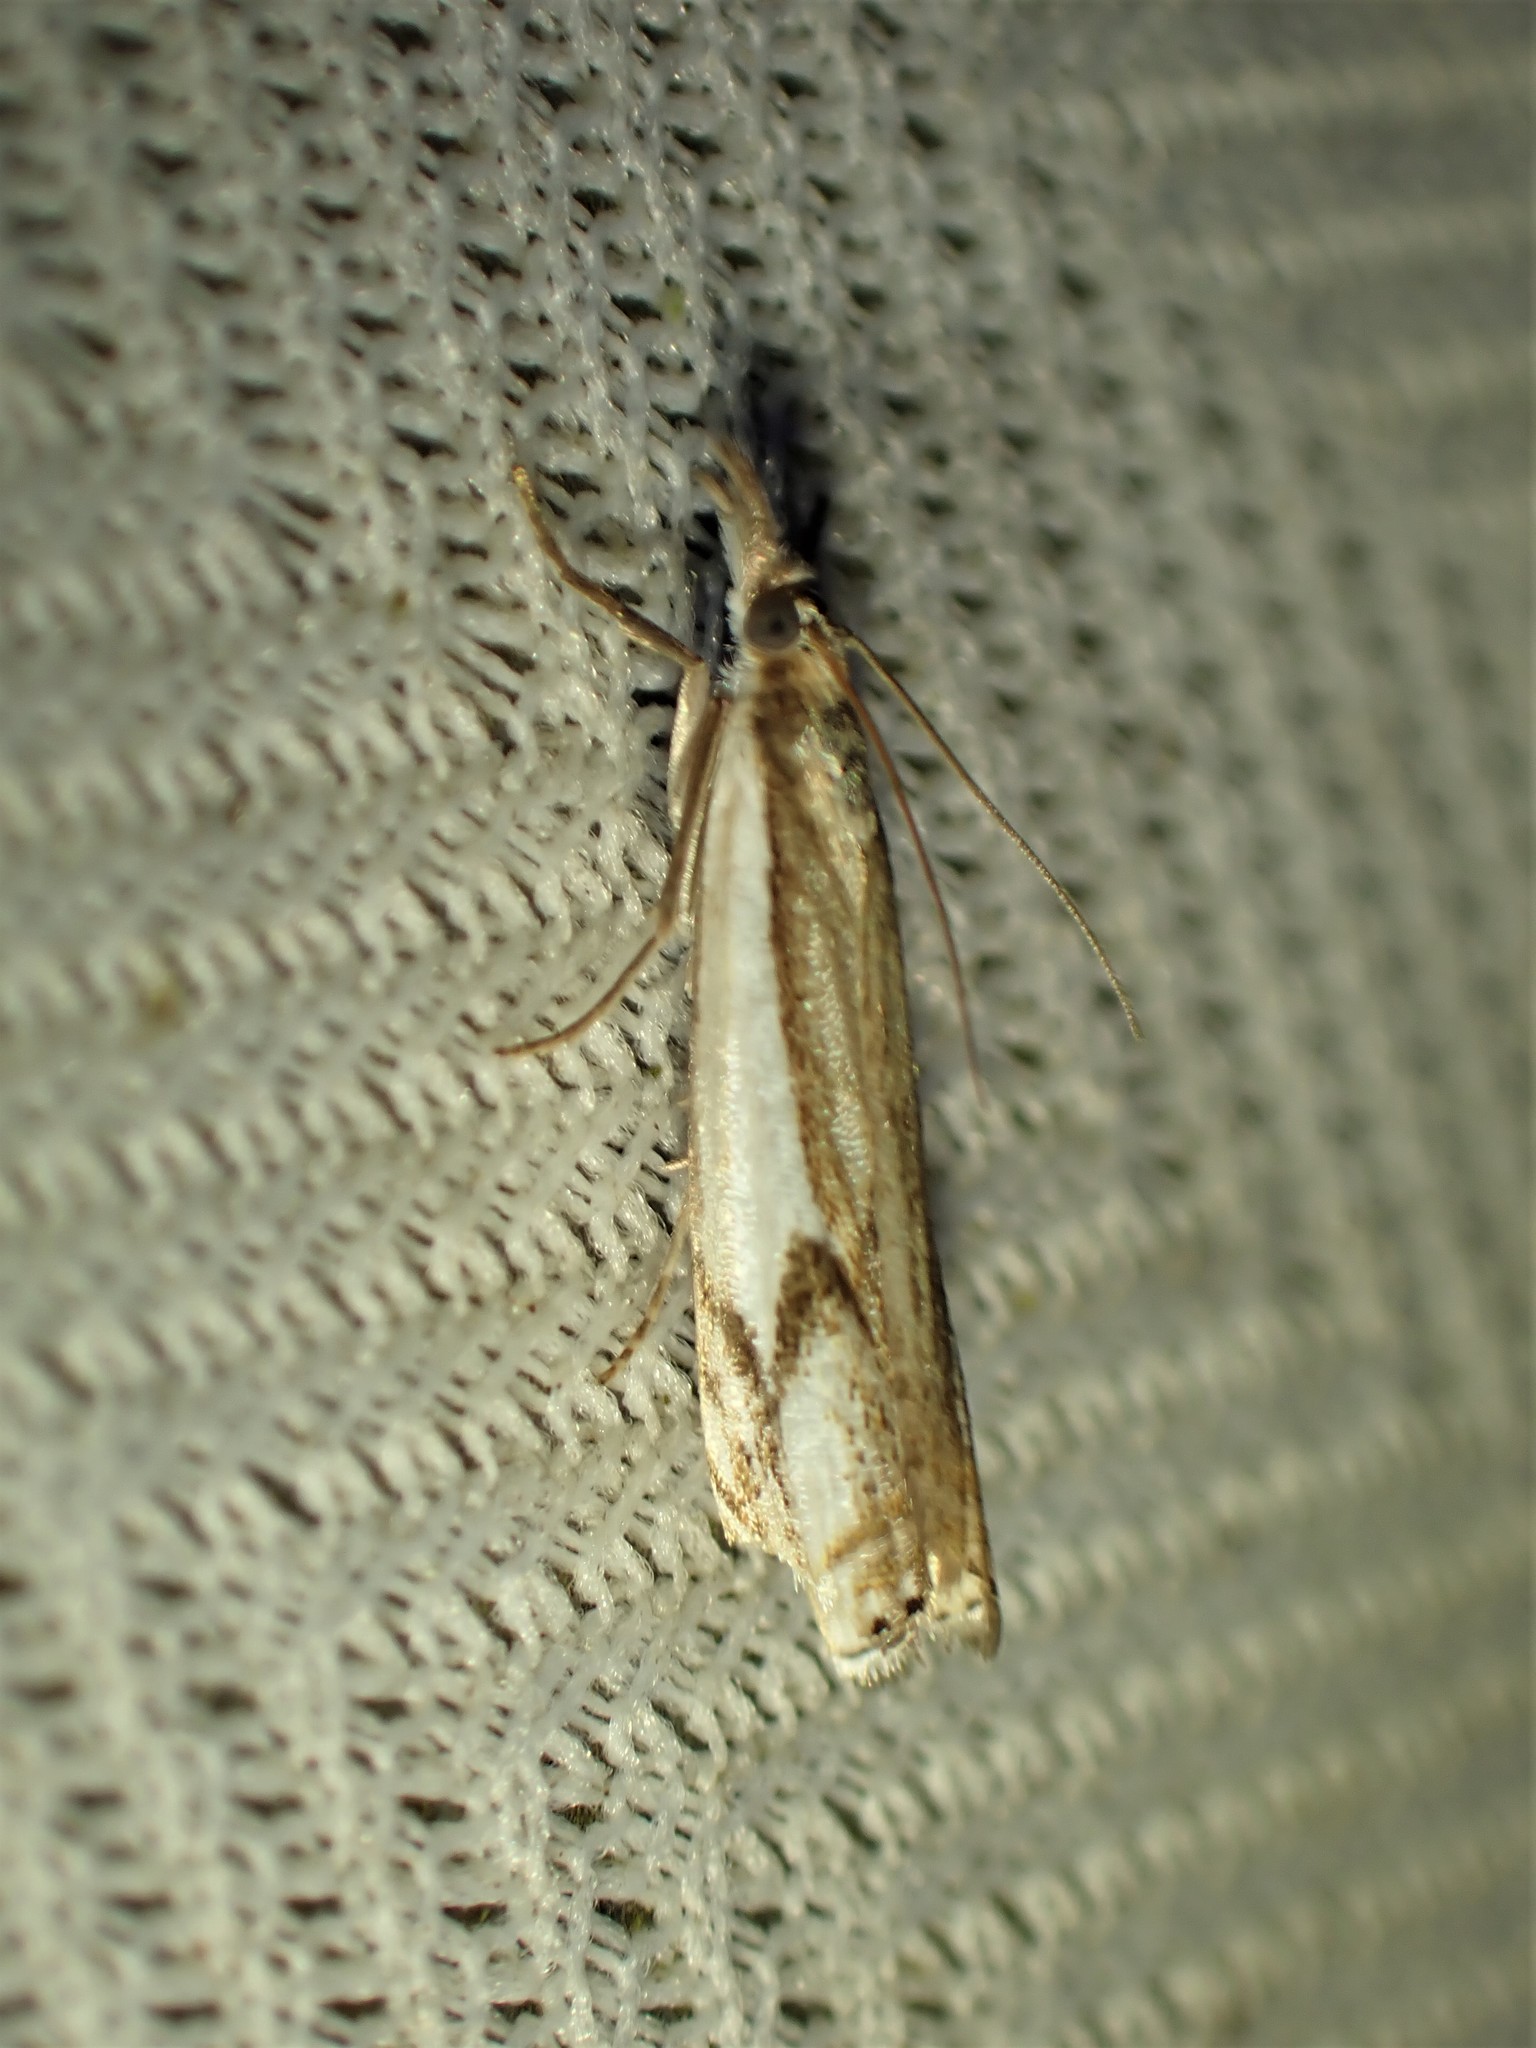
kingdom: Animalia
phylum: Arthropoda
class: Insecta
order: Lepidoptera
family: Crambidae
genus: Crambus
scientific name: Crambus agitatellus
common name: Double-banded grass-veneer
